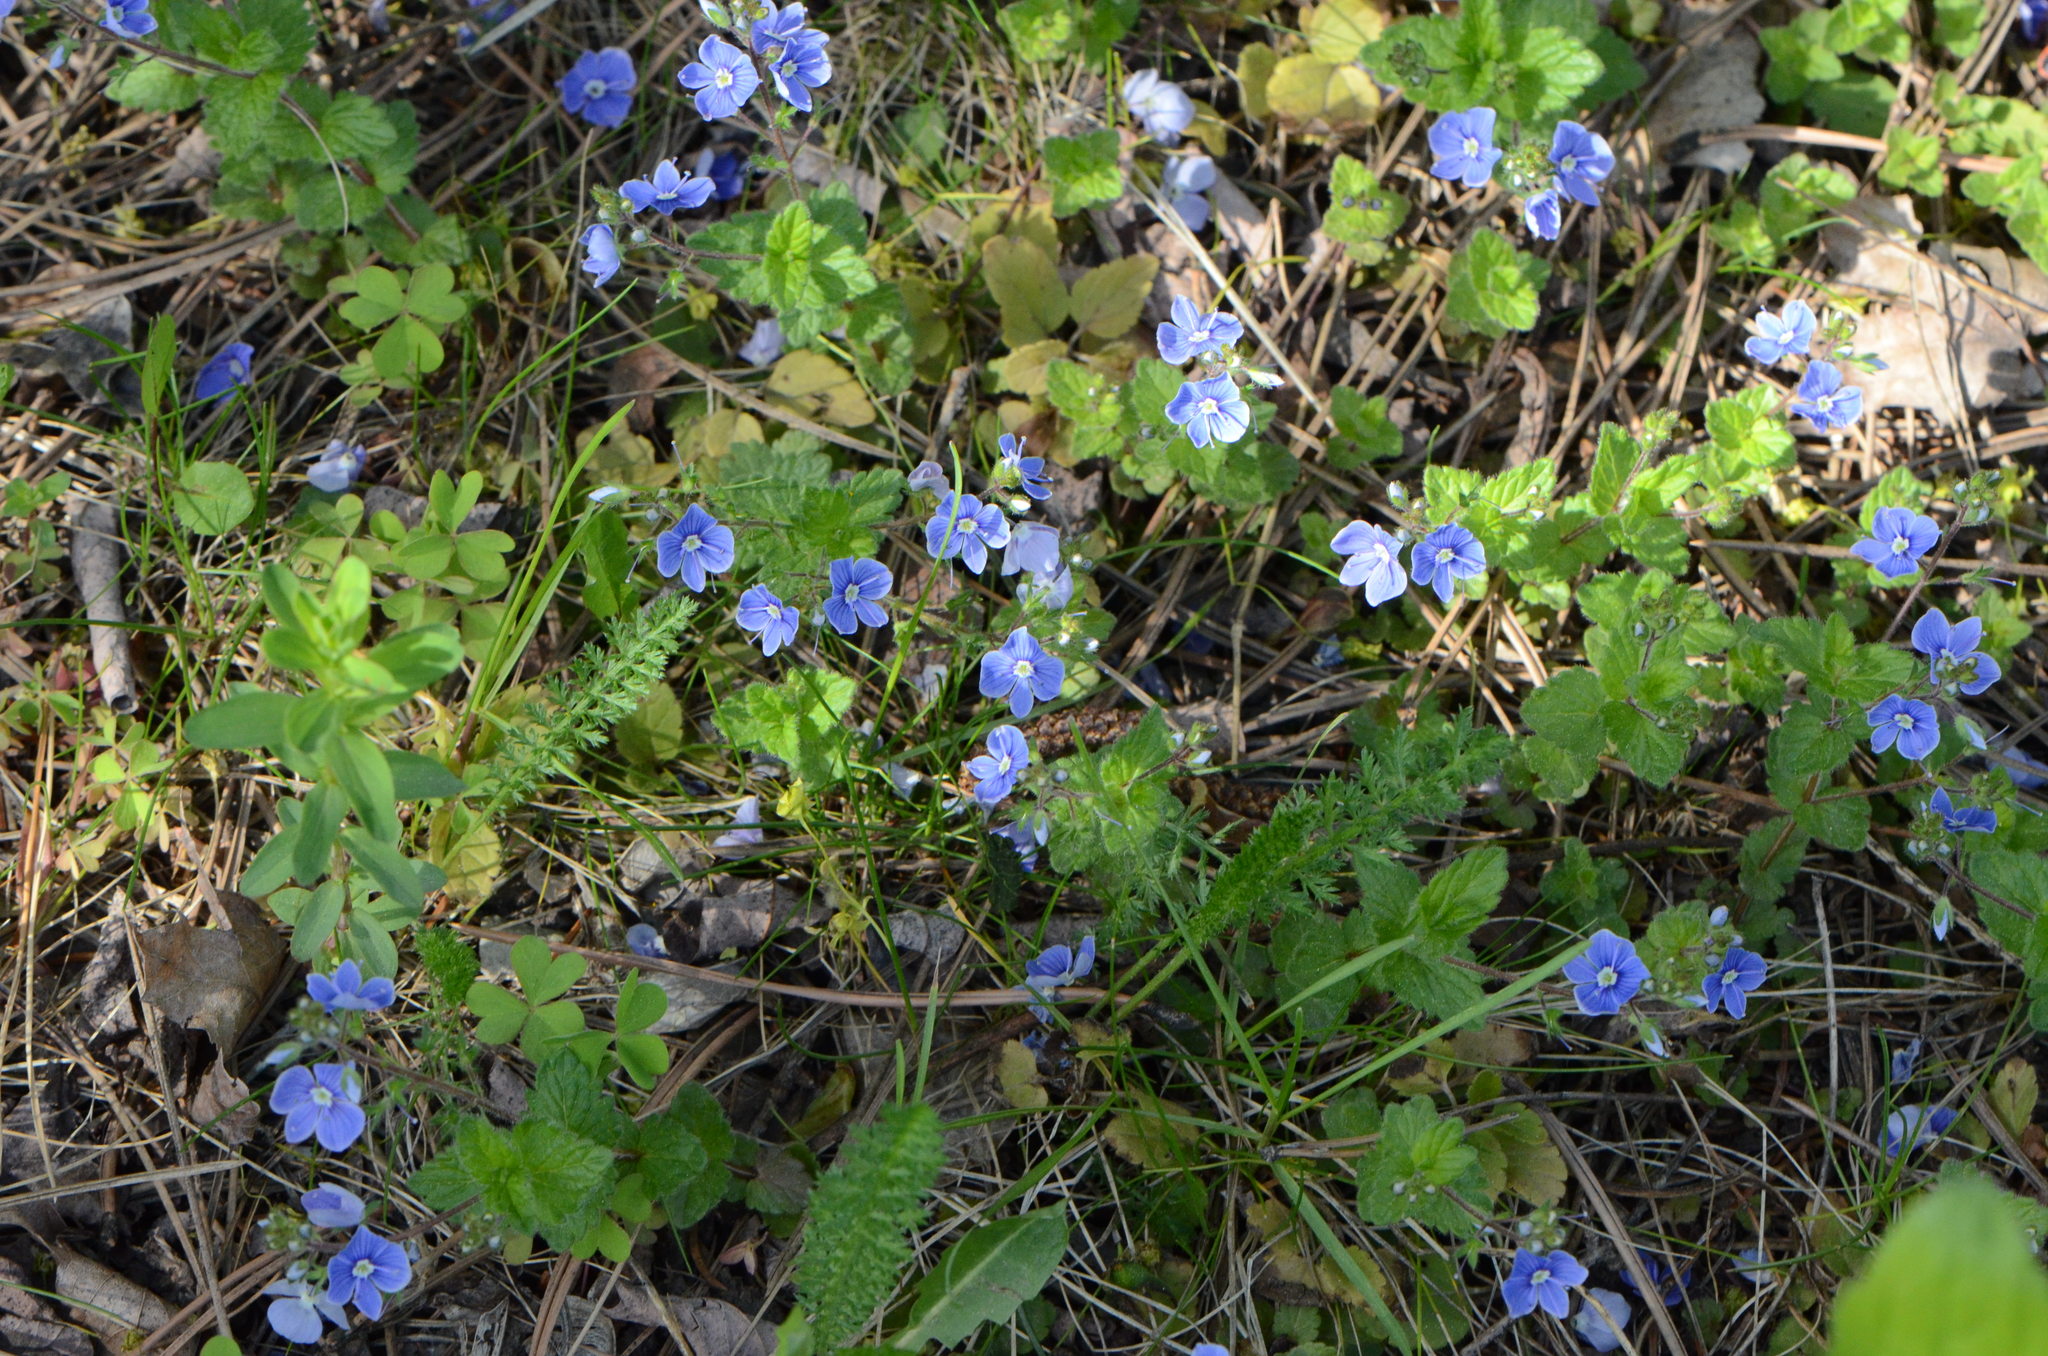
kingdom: Plantae
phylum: Tracheophyta
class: Magnoliopsida
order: Lamiales
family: Plantaginaceae
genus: Veronica
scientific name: Veronica chamaedrys
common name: Germander speedwell
